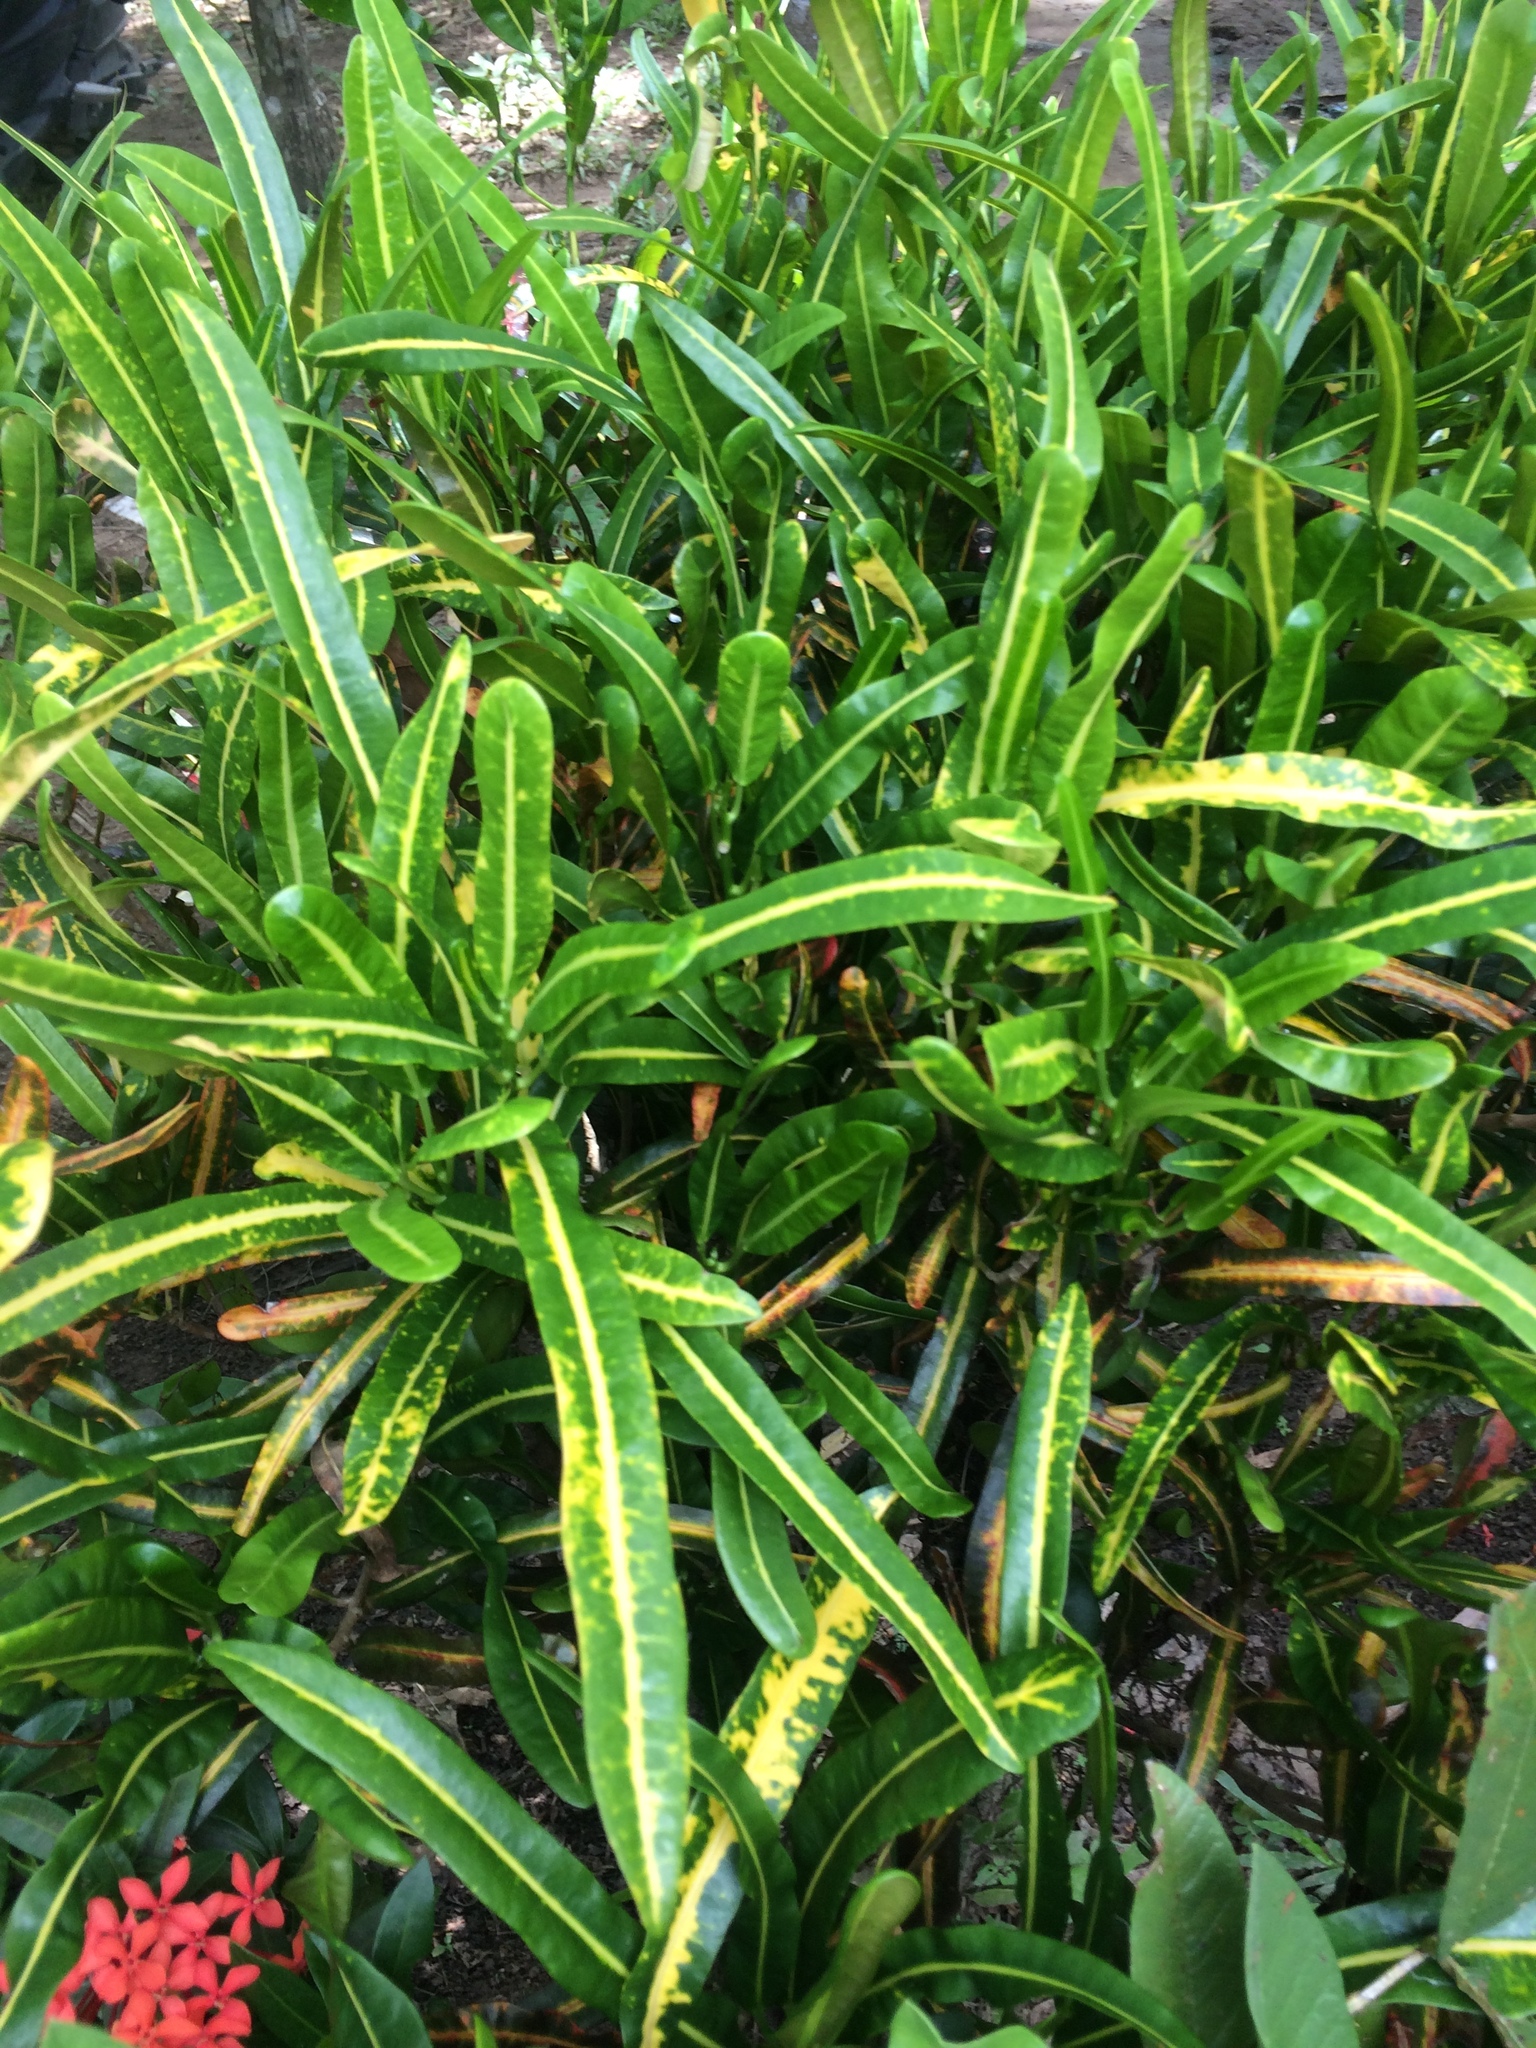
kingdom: Plantae
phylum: Tracheophyta
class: Magnoliopsida
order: Malpighiales
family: Euphorbiaceae
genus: Codiaeum
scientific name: Codiaeum variegatum
